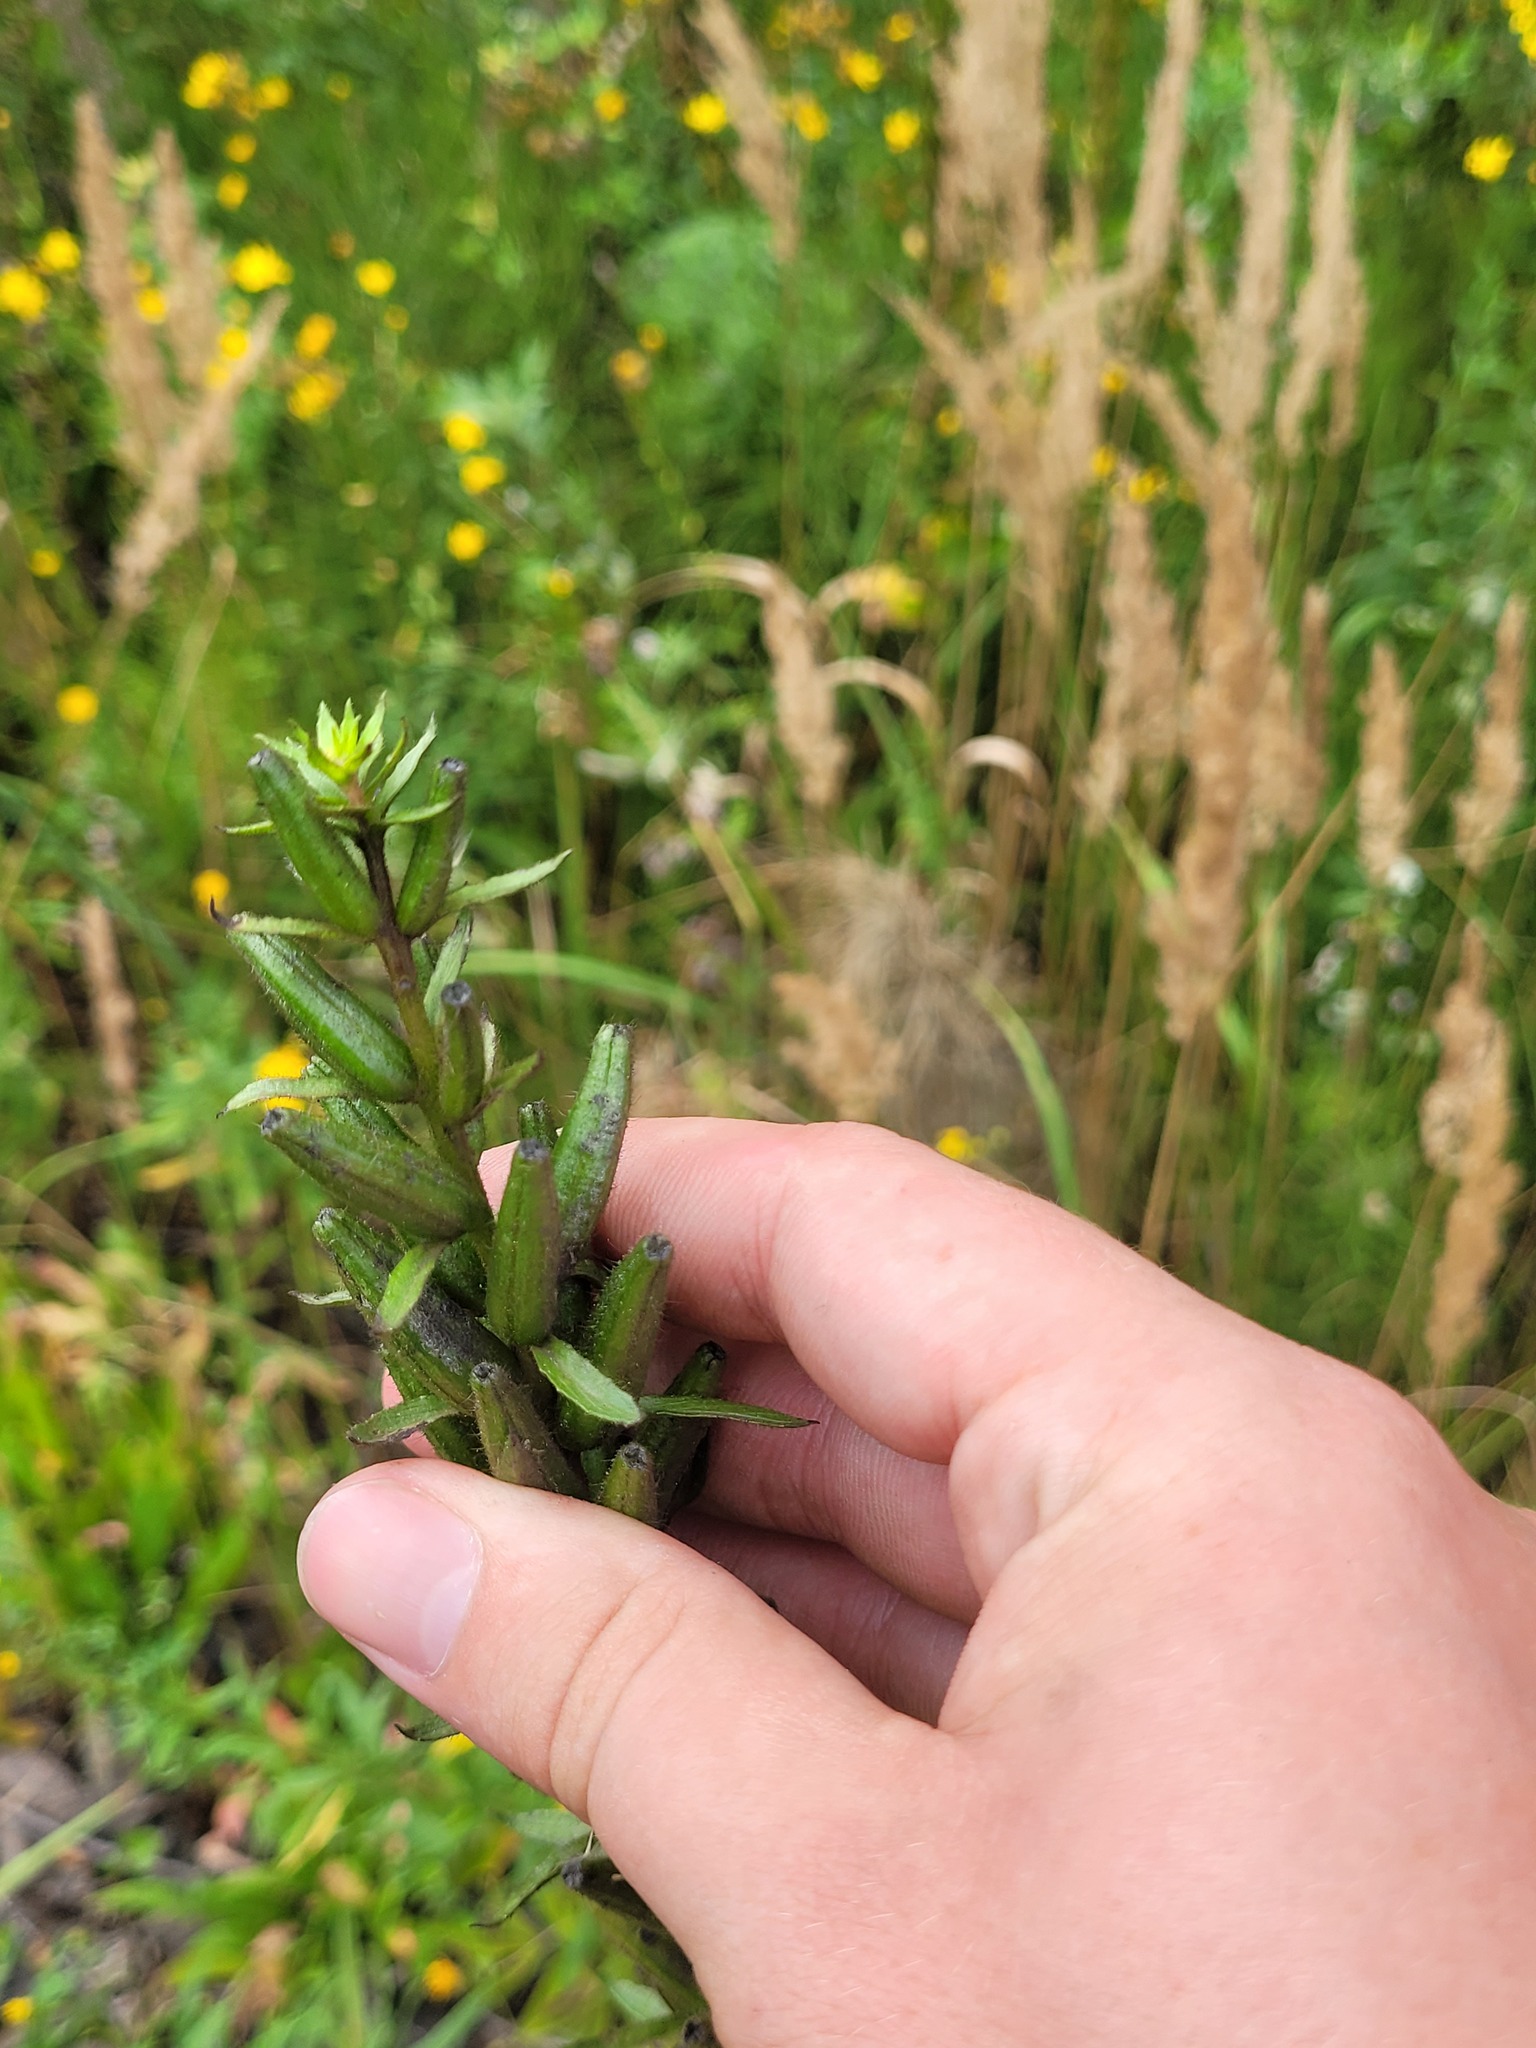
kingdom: Plantae
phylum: Tracheophyta
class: Magnoliopsida
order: Myrtales
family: Onagraceae
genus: Oenothera
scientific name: Oenothera rubricaulis
